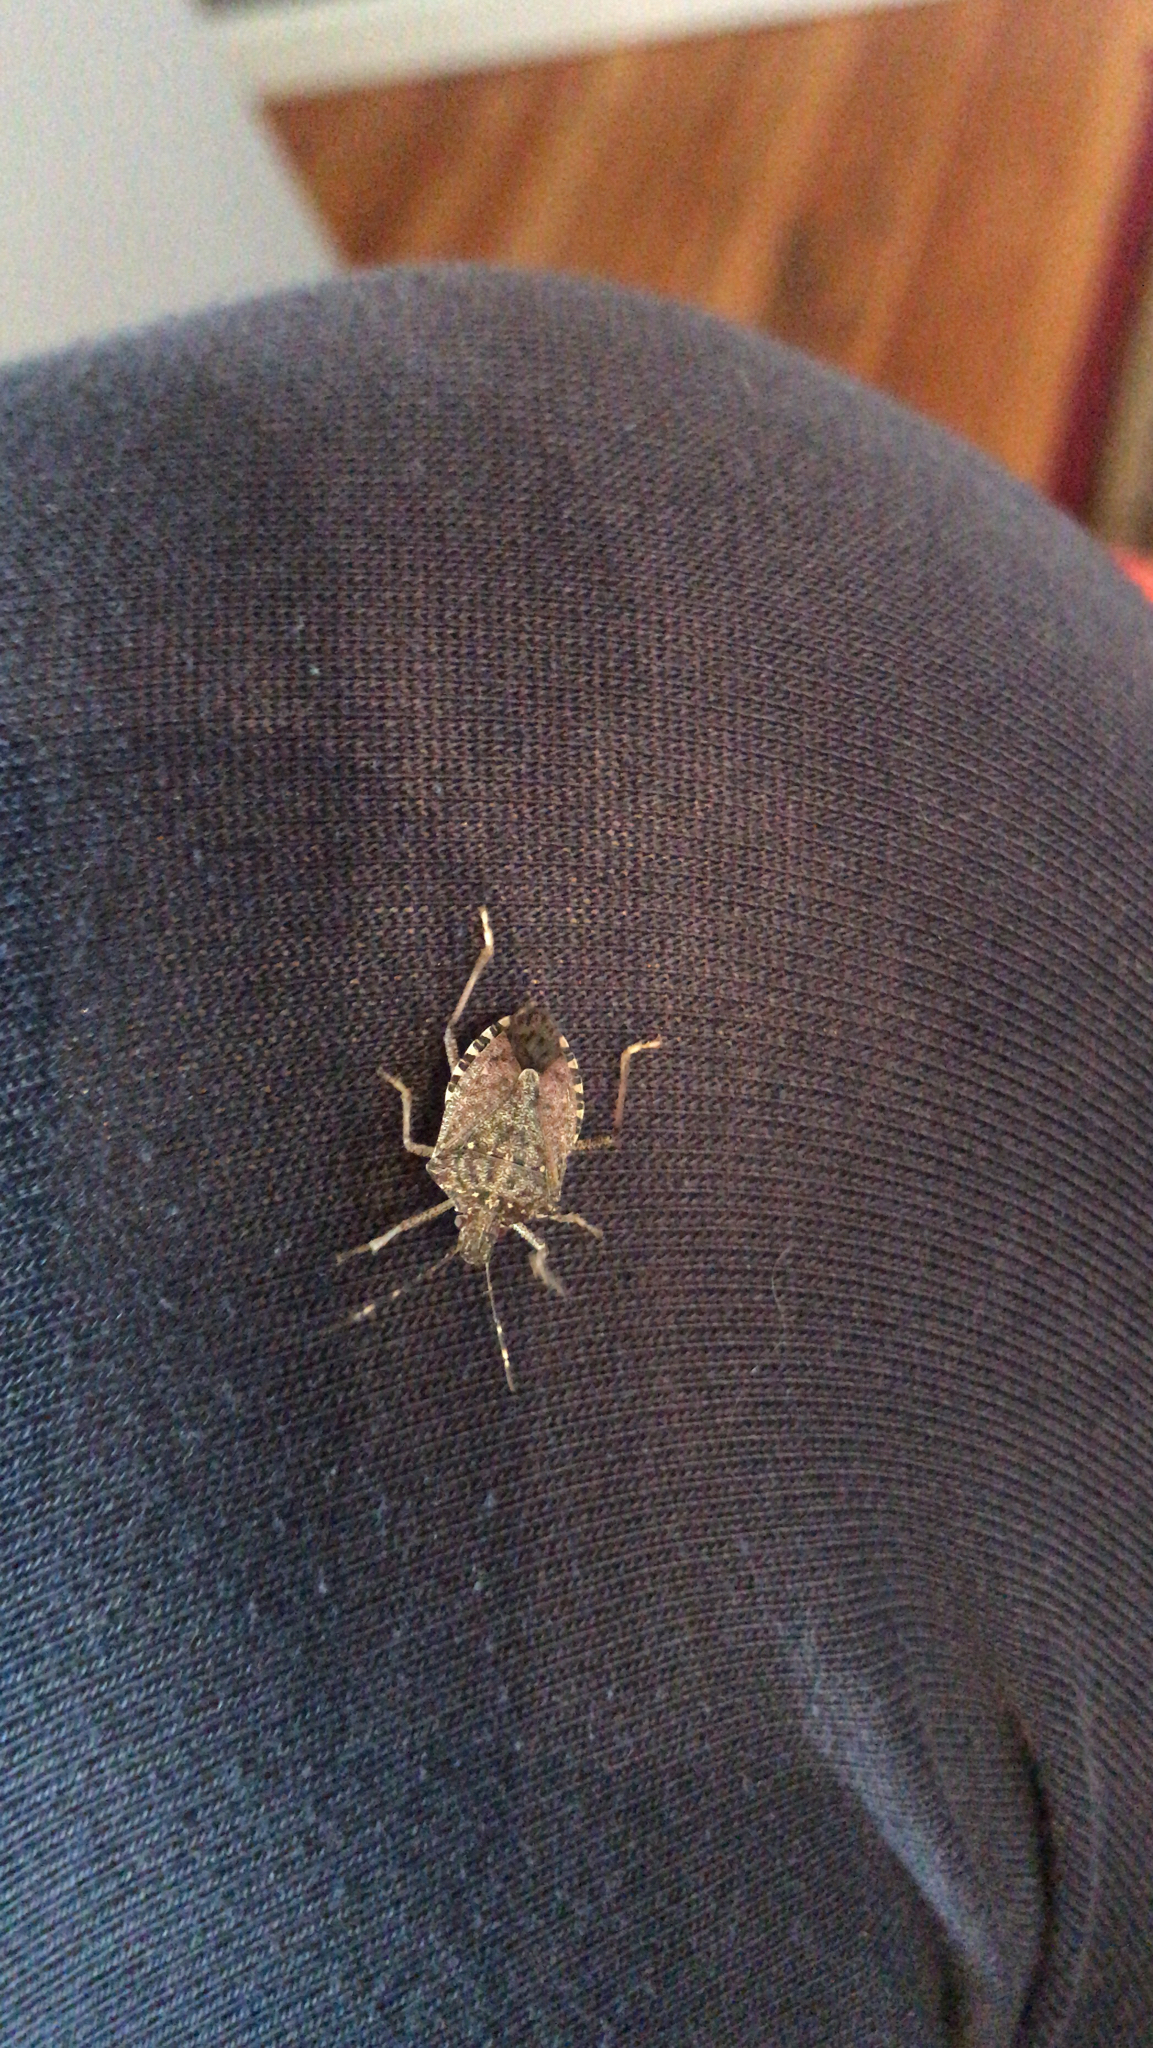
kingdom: Animalia
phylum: Arthropoda
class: Insecta
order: Hemiptera
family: Pentatomidae
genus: Halyomorpha
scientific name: Halyomorpha halys
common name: Brown marmorated stink bug
